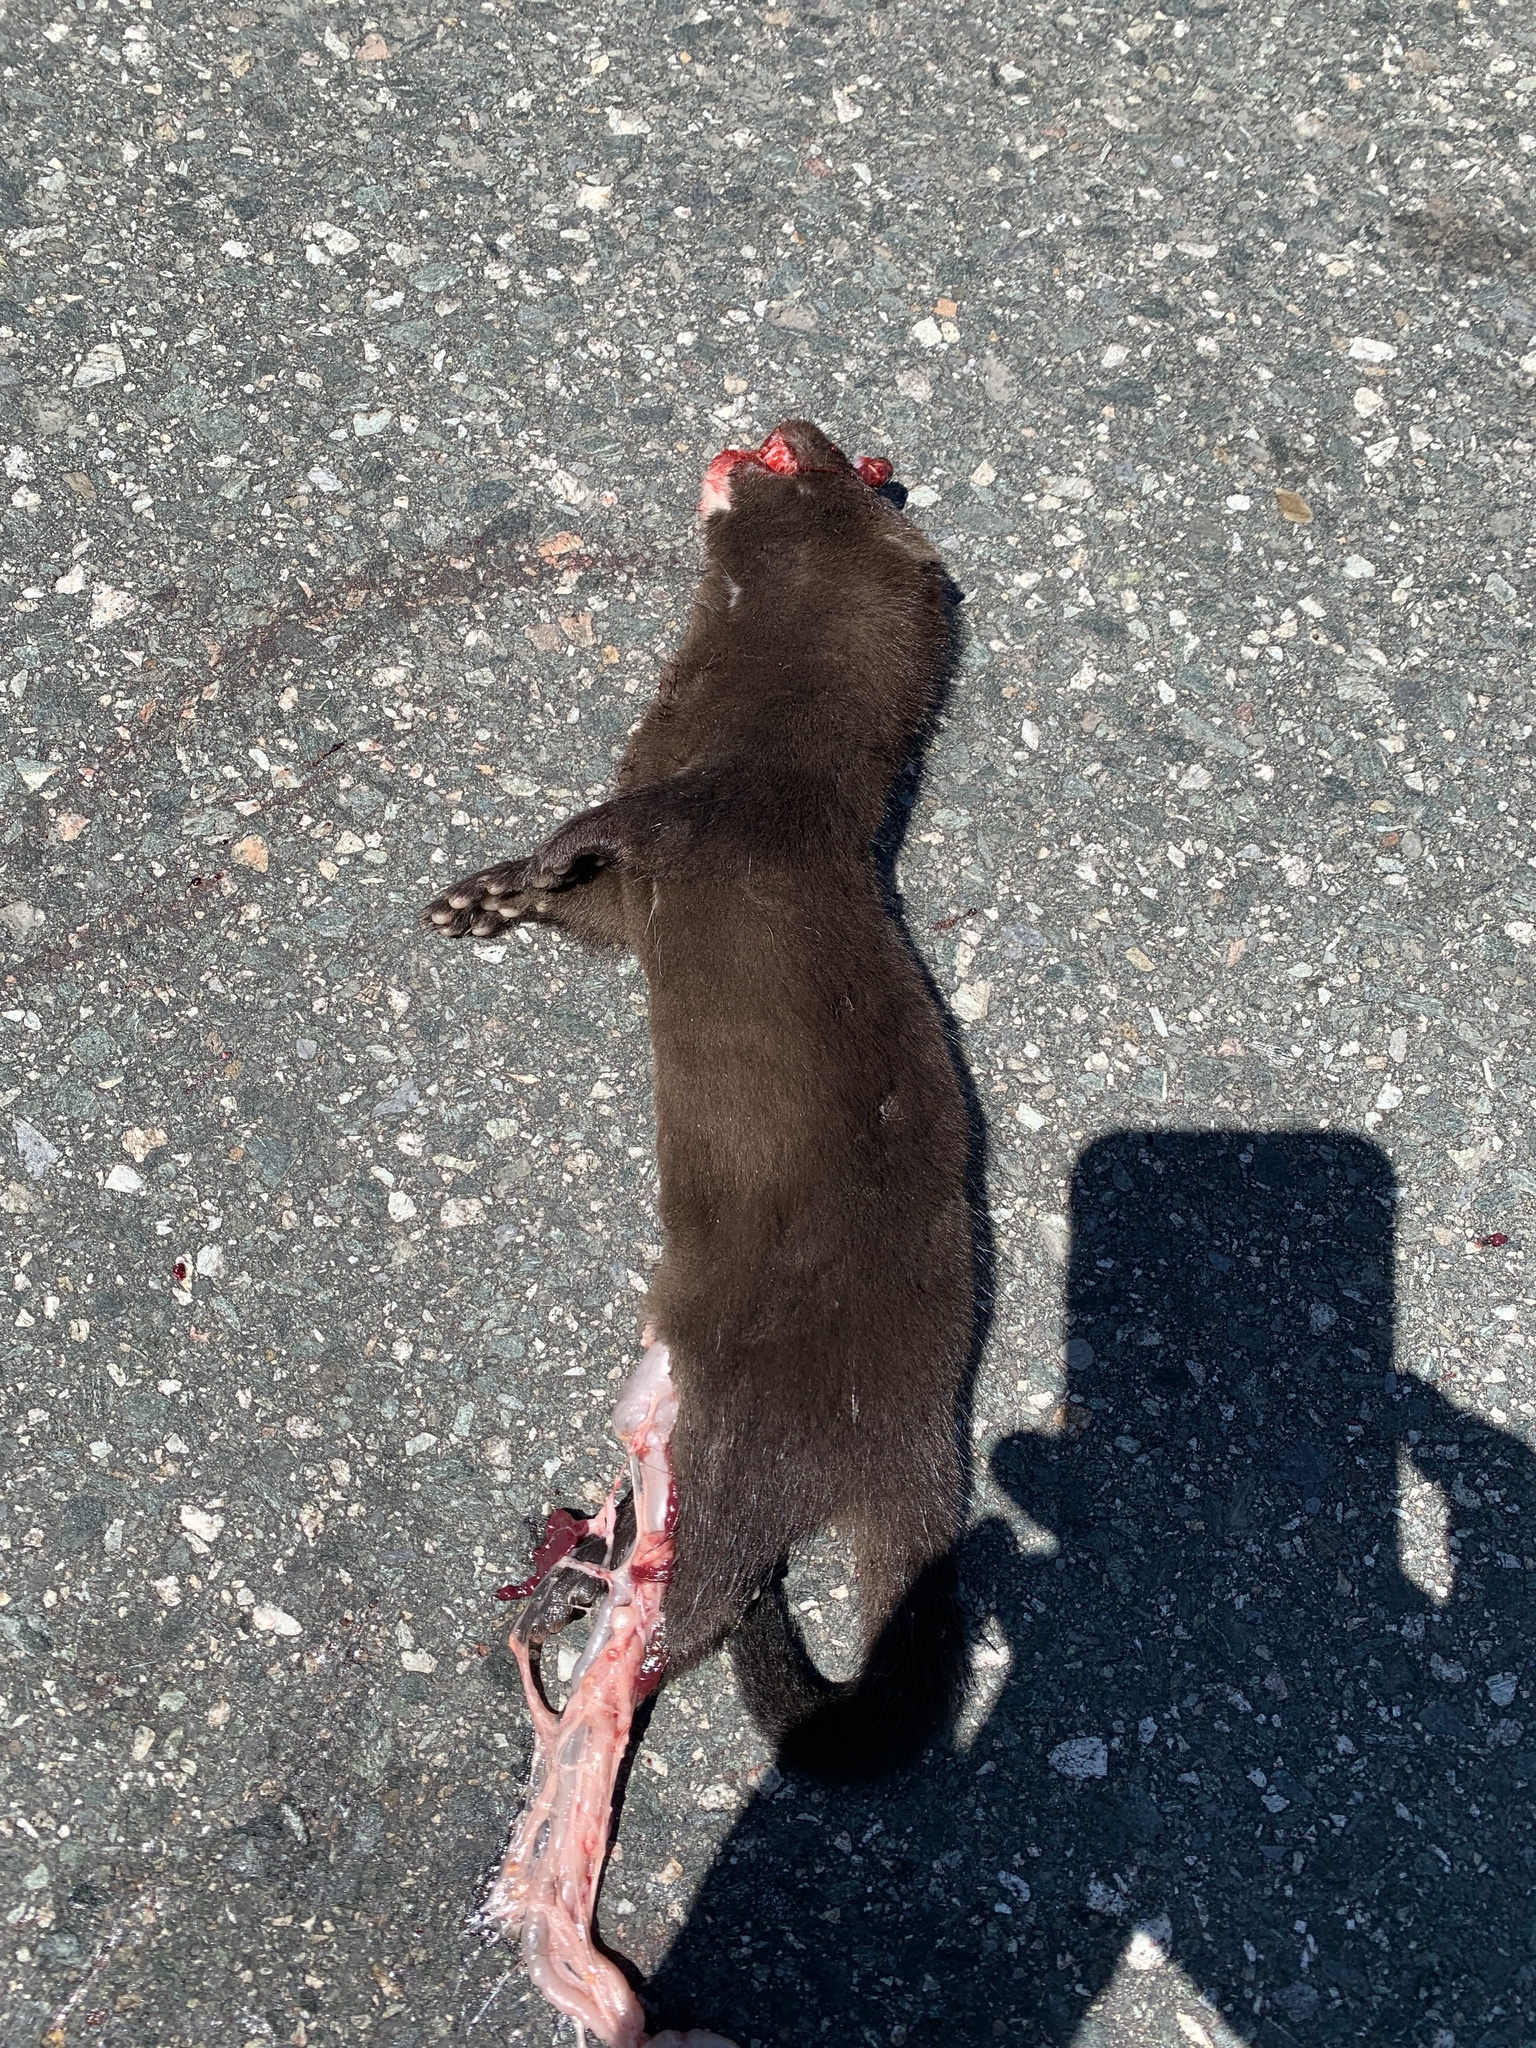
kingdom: Animalia
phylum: Chordata
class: Mammalia
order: Carnivora
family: Mustelidae
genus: Mustela
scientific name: Mustela
